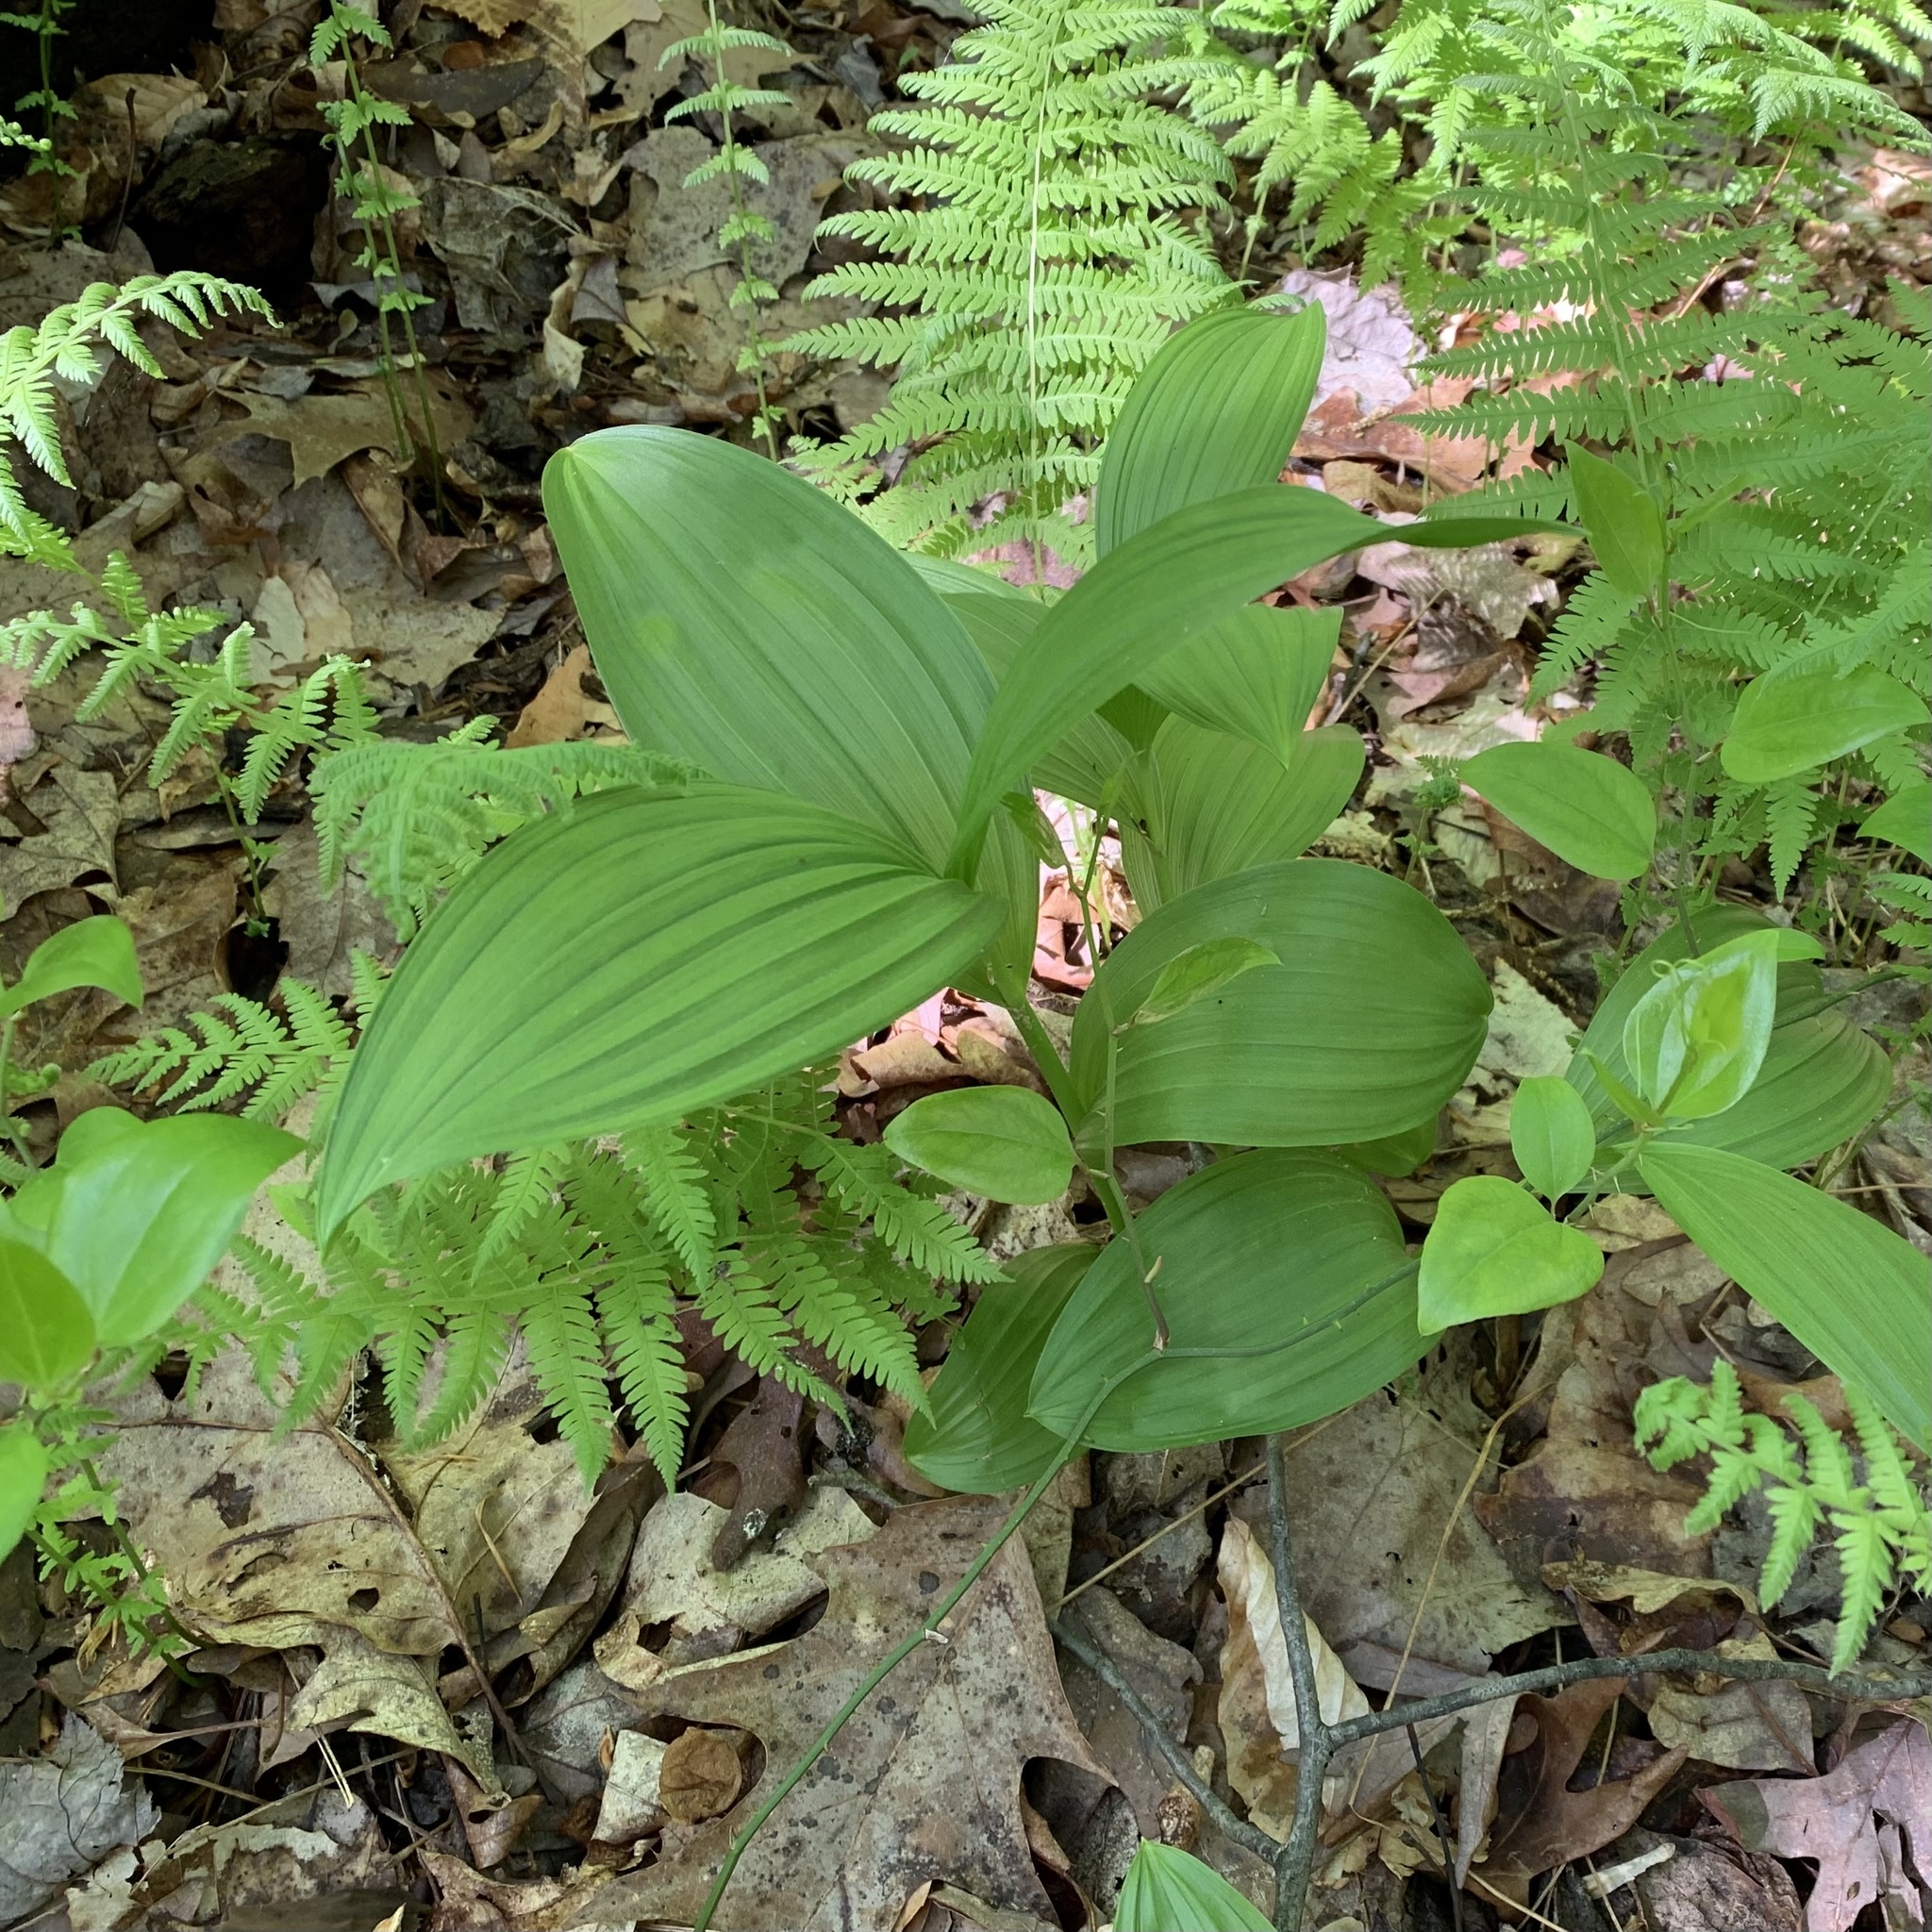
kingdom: Plantae
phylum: Tracheophyta
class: Liliopsida
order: Liliales
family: Melanthiaceae
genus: Veratrum
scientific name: Veratrum viride
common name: American false hellebore
